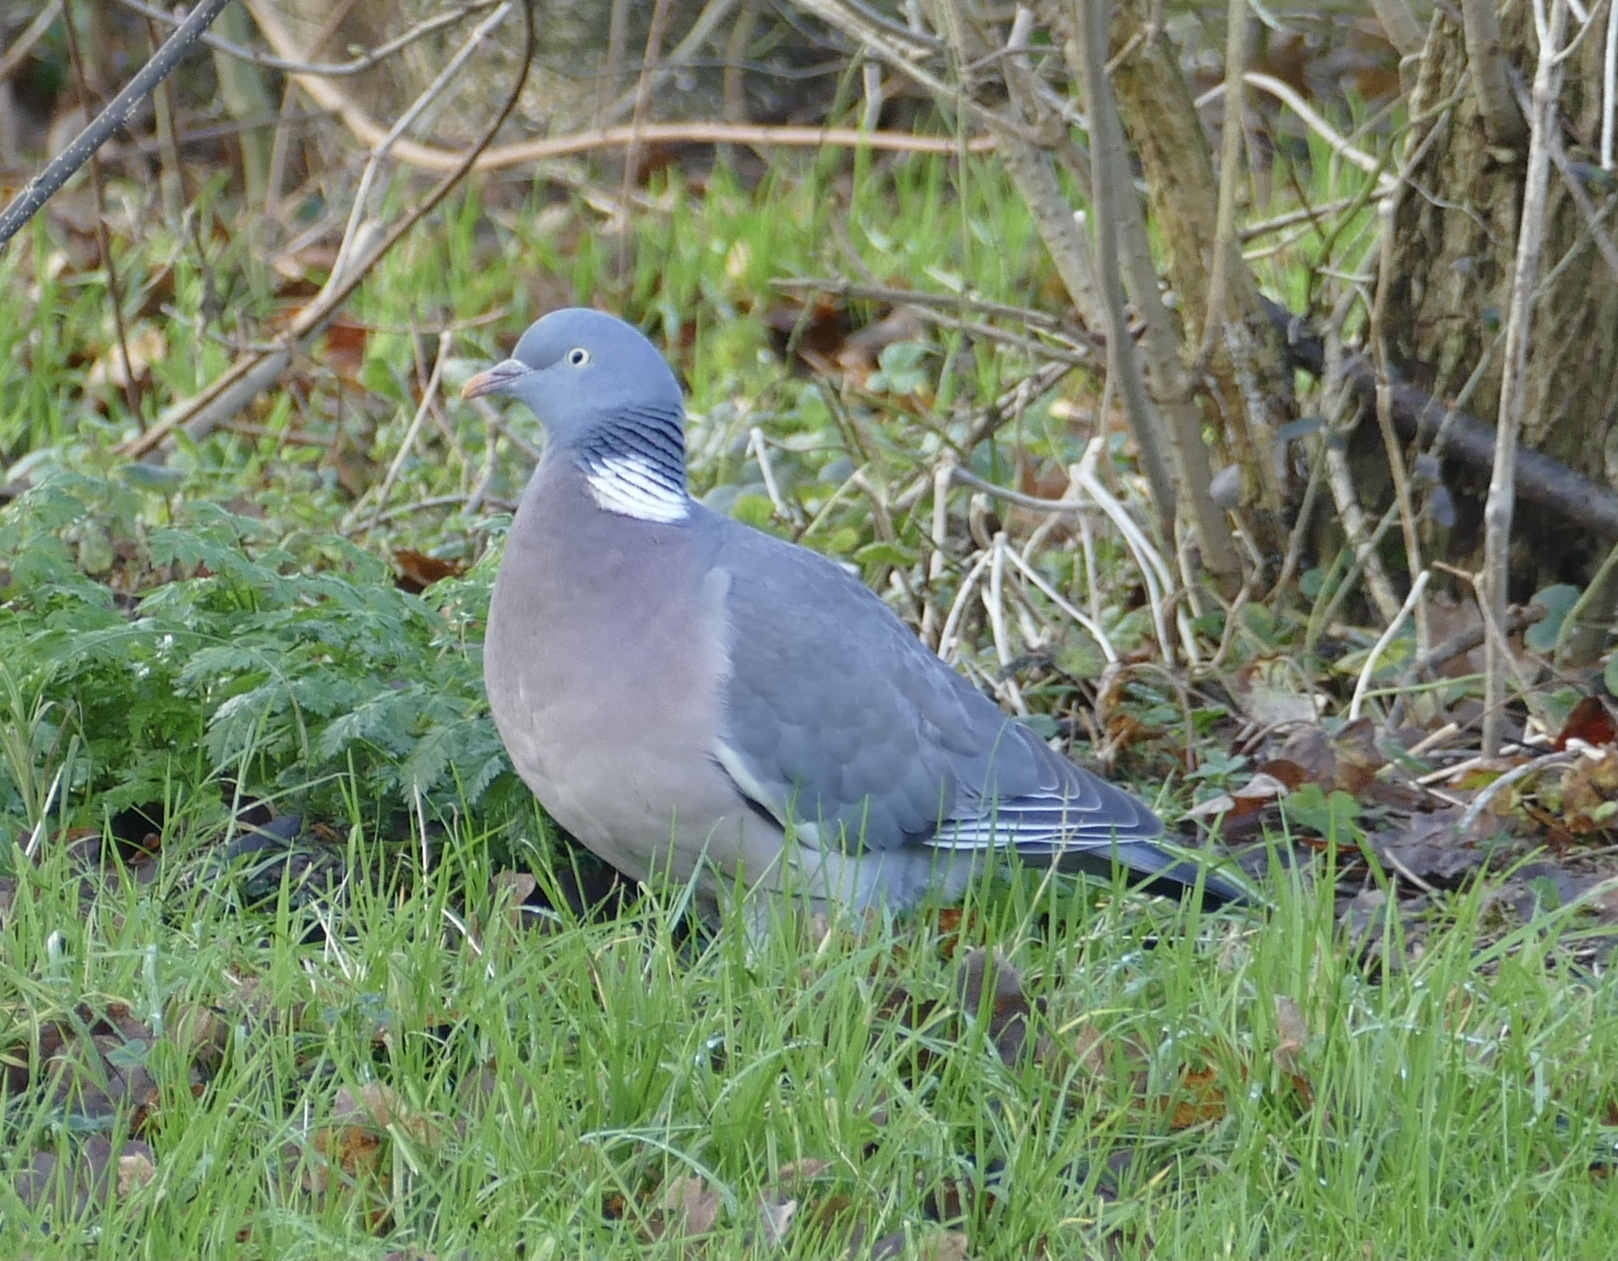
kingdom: Animalia
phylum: Chordata
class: Aves
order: Columbiformes
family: Columbidae
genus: Columba
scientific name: Columba palumbus
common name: Common wood pigeon
